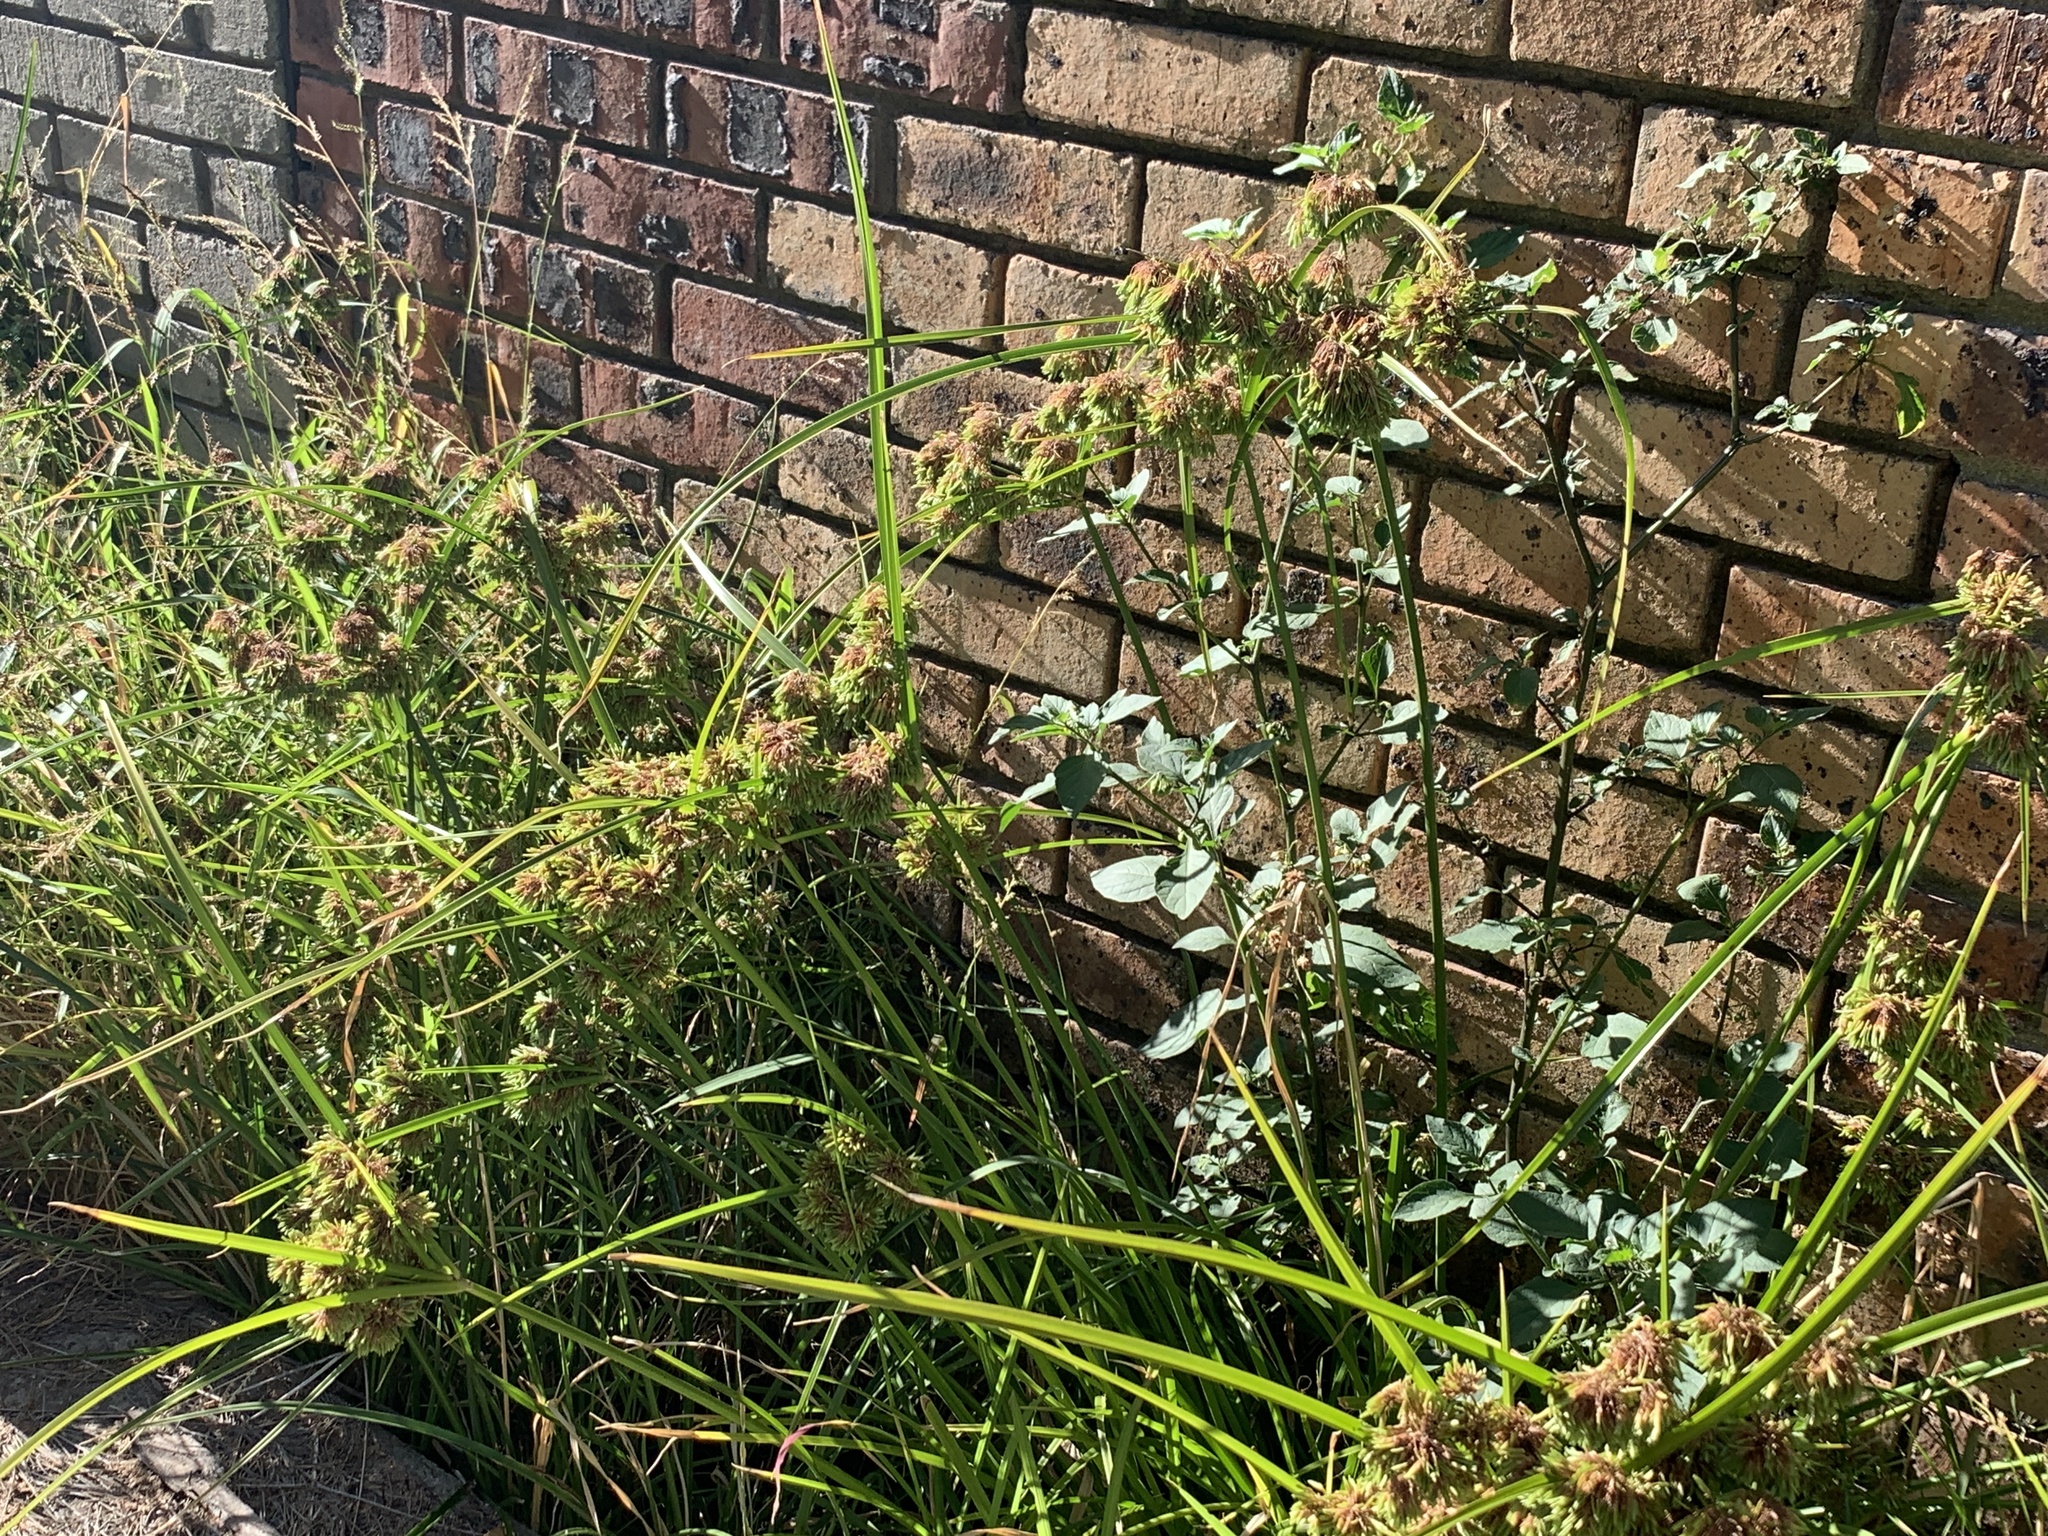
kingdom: Plantae
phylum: Tracheophyta
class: Liliopsida
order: Poales
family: Cyperaceae
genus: Cyperus
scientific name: Cyperus eragrostis
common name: Tall flatsedge
